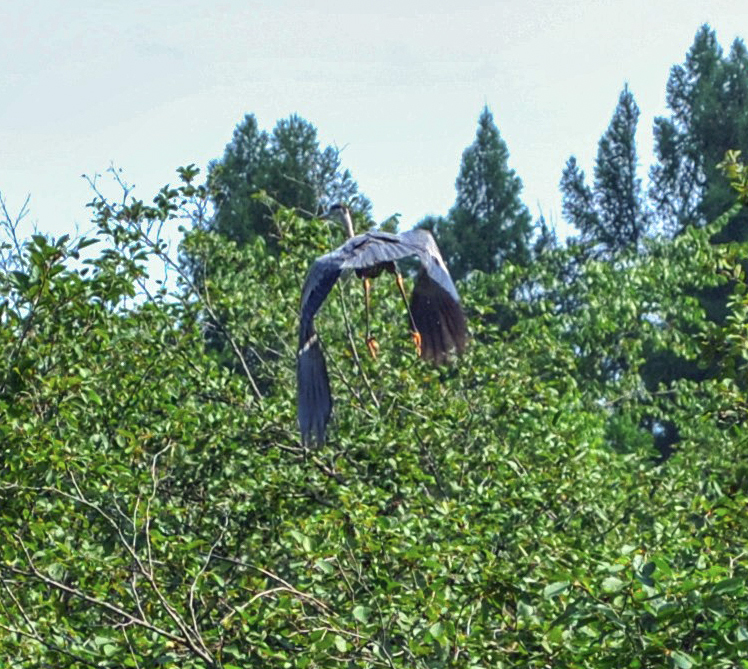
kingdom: Animalia
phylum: Chordata
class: Aves
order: Pelecaniformes
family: Ardeidae
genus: Ardea
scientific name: Ardea herodias
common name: Great blue heron
